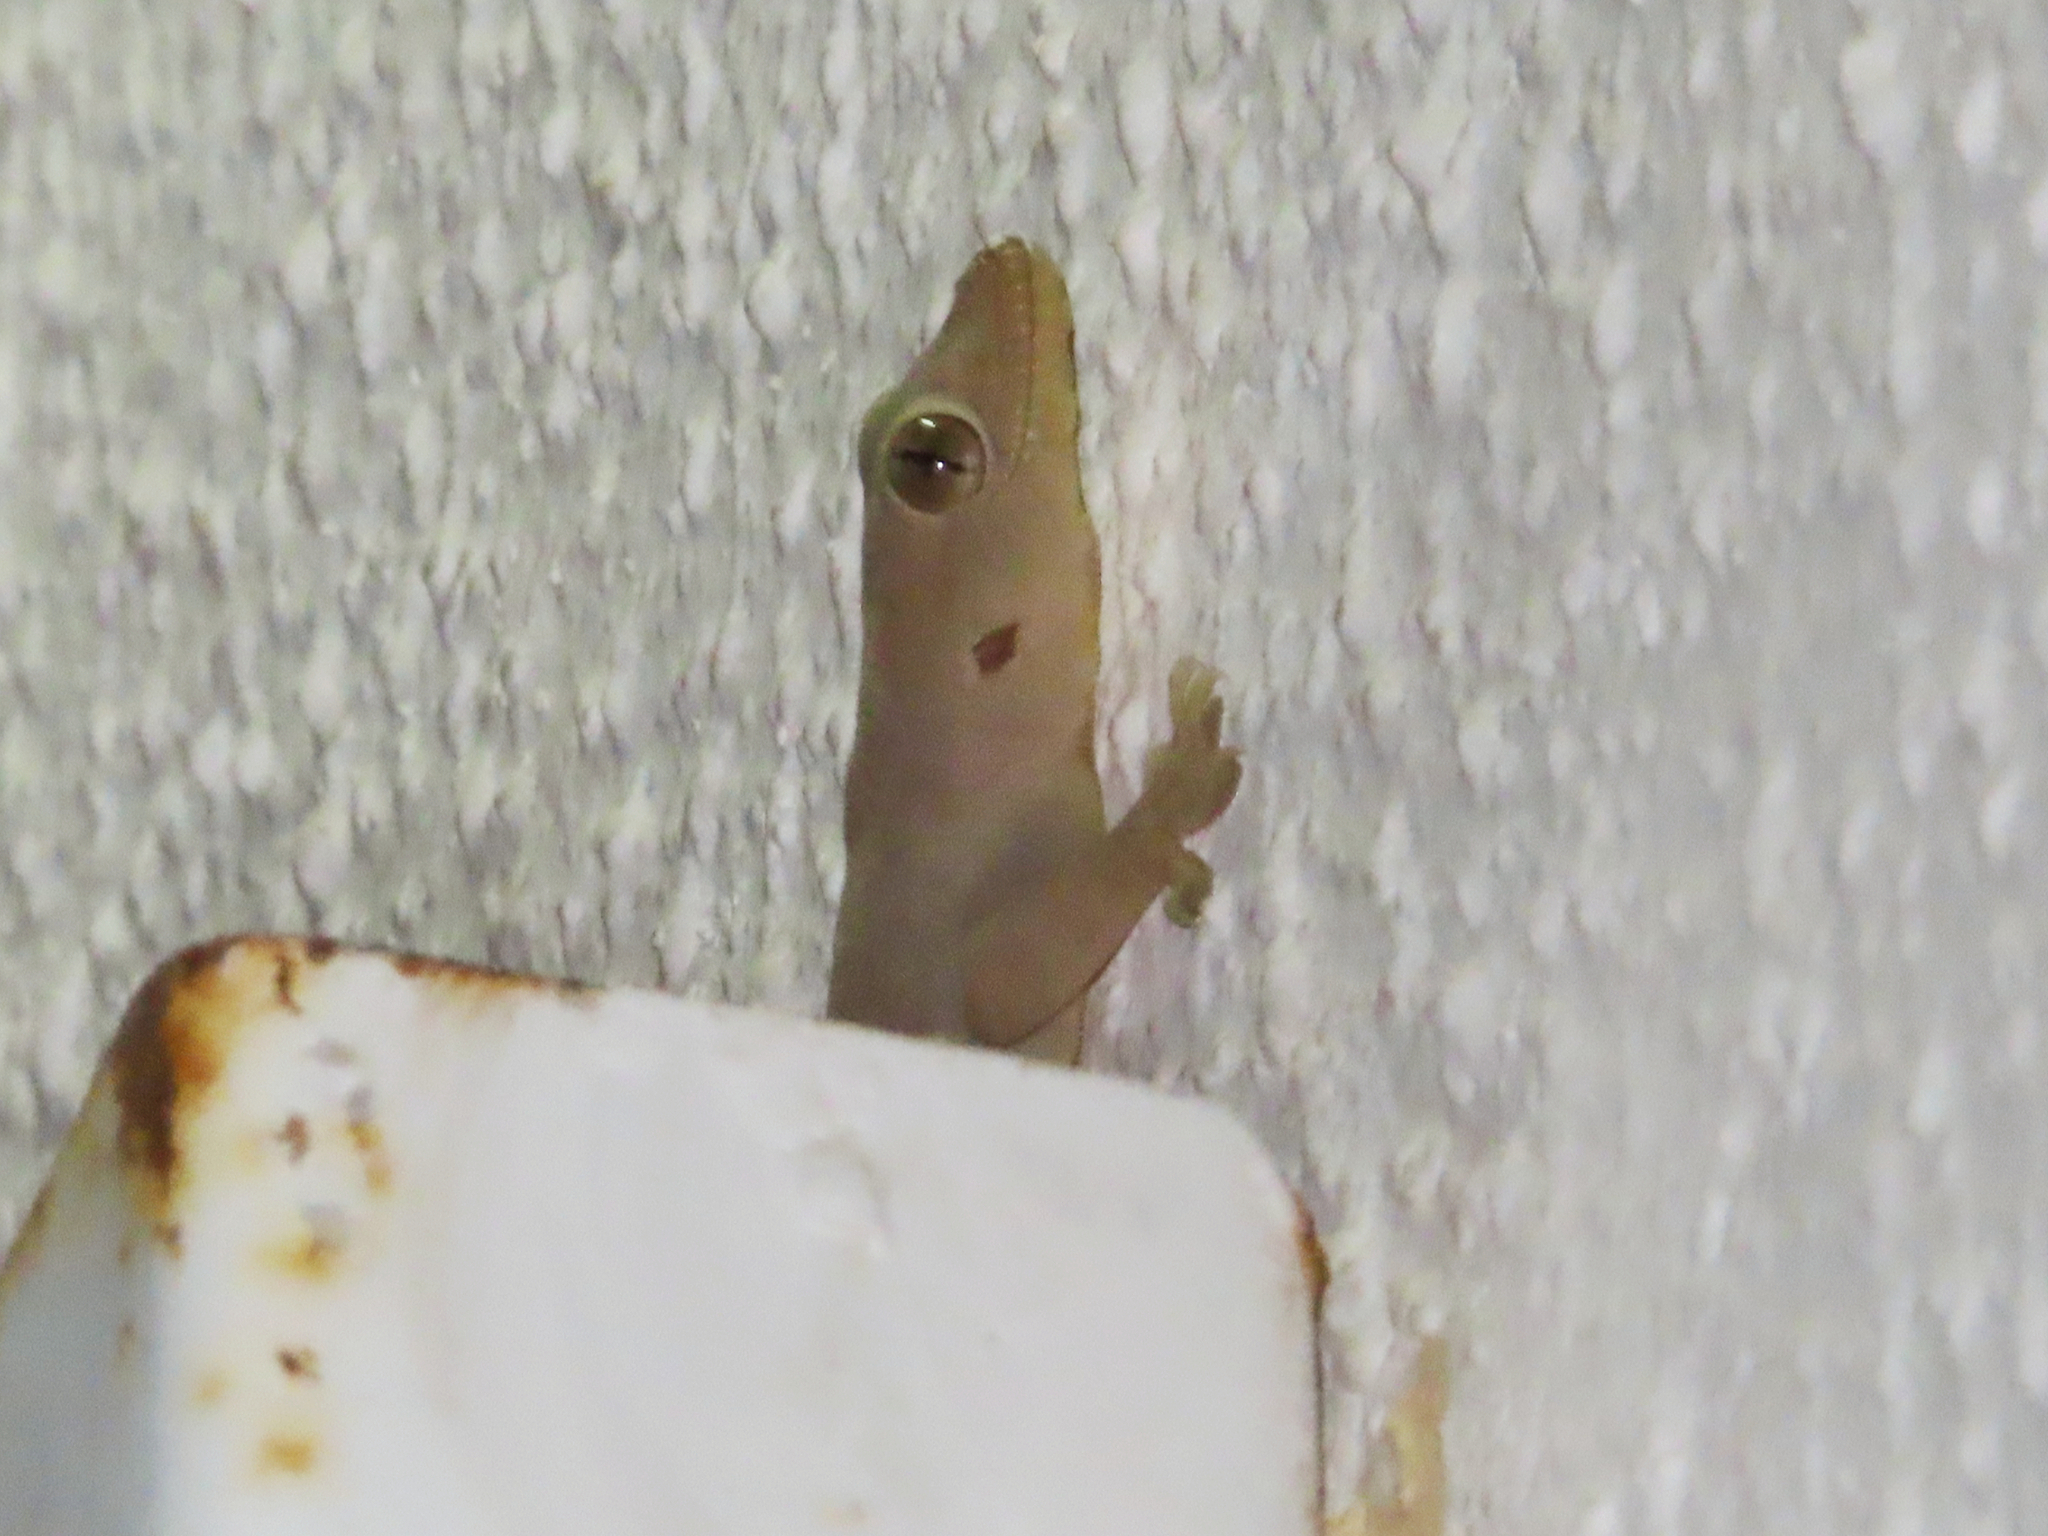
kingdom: Animalia
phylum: Chordata
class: Squamata
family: Gekkonidae
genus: Hemidactylus
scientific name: Hemidactylus flaviviridis
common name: Northern house gecko
